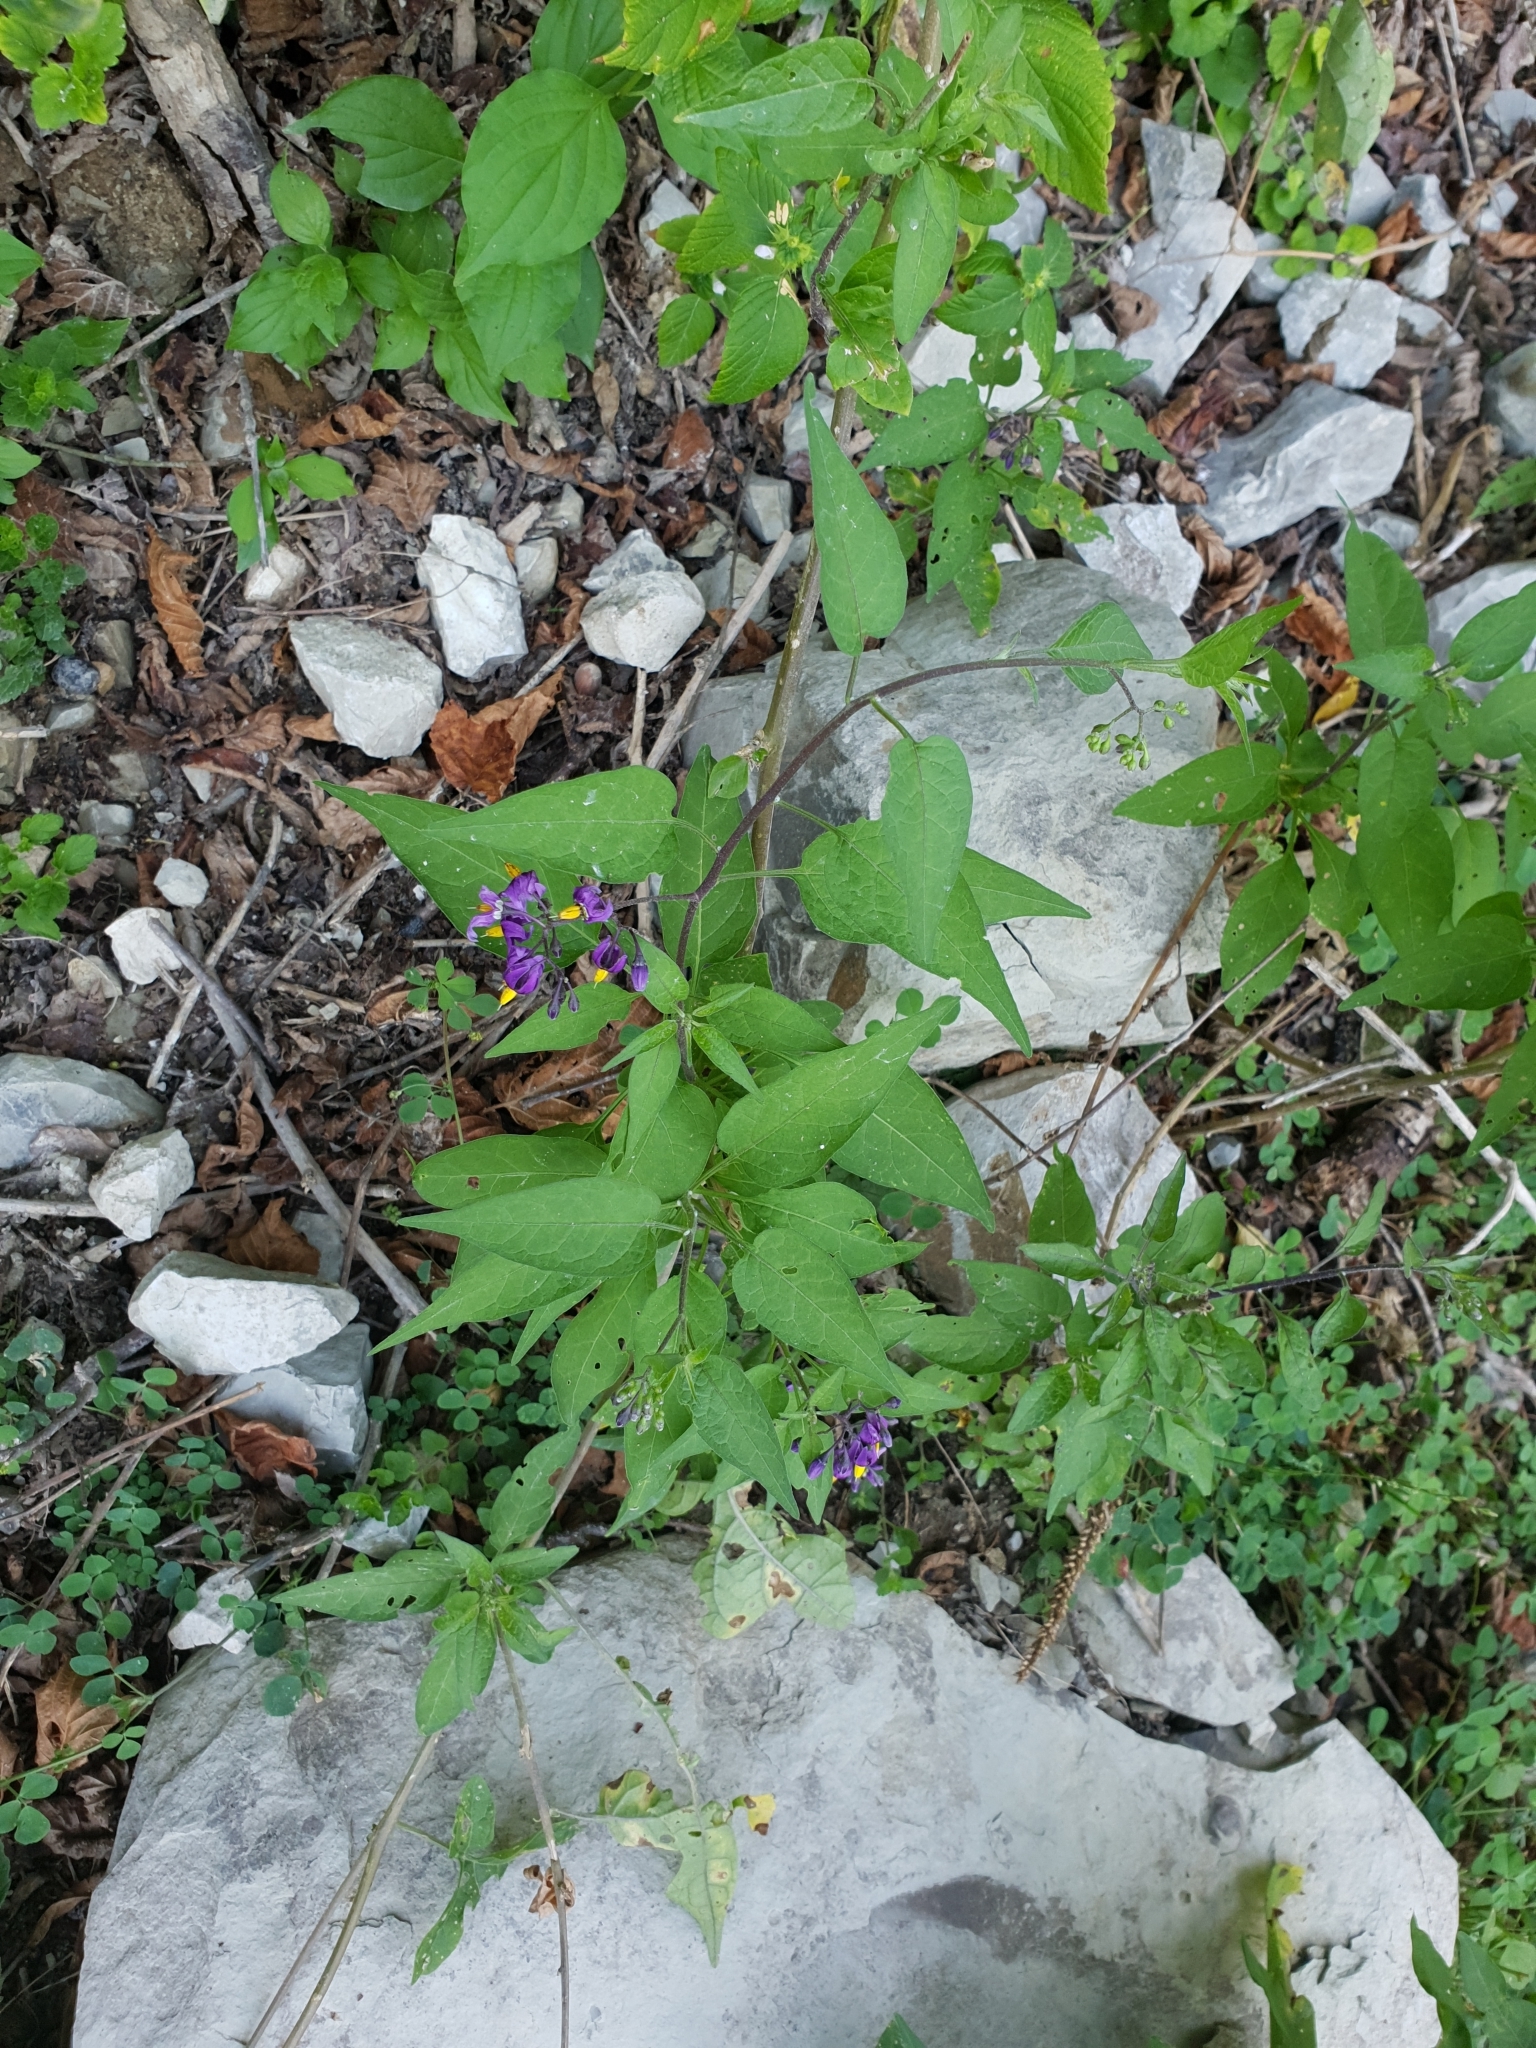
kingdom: Plantae
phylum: Tracheophyta
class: Magnoliopsida
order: Solanales
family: Solanaceae
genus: Solanum
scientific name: Solanum dulcamara
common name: Climbing nightshade
